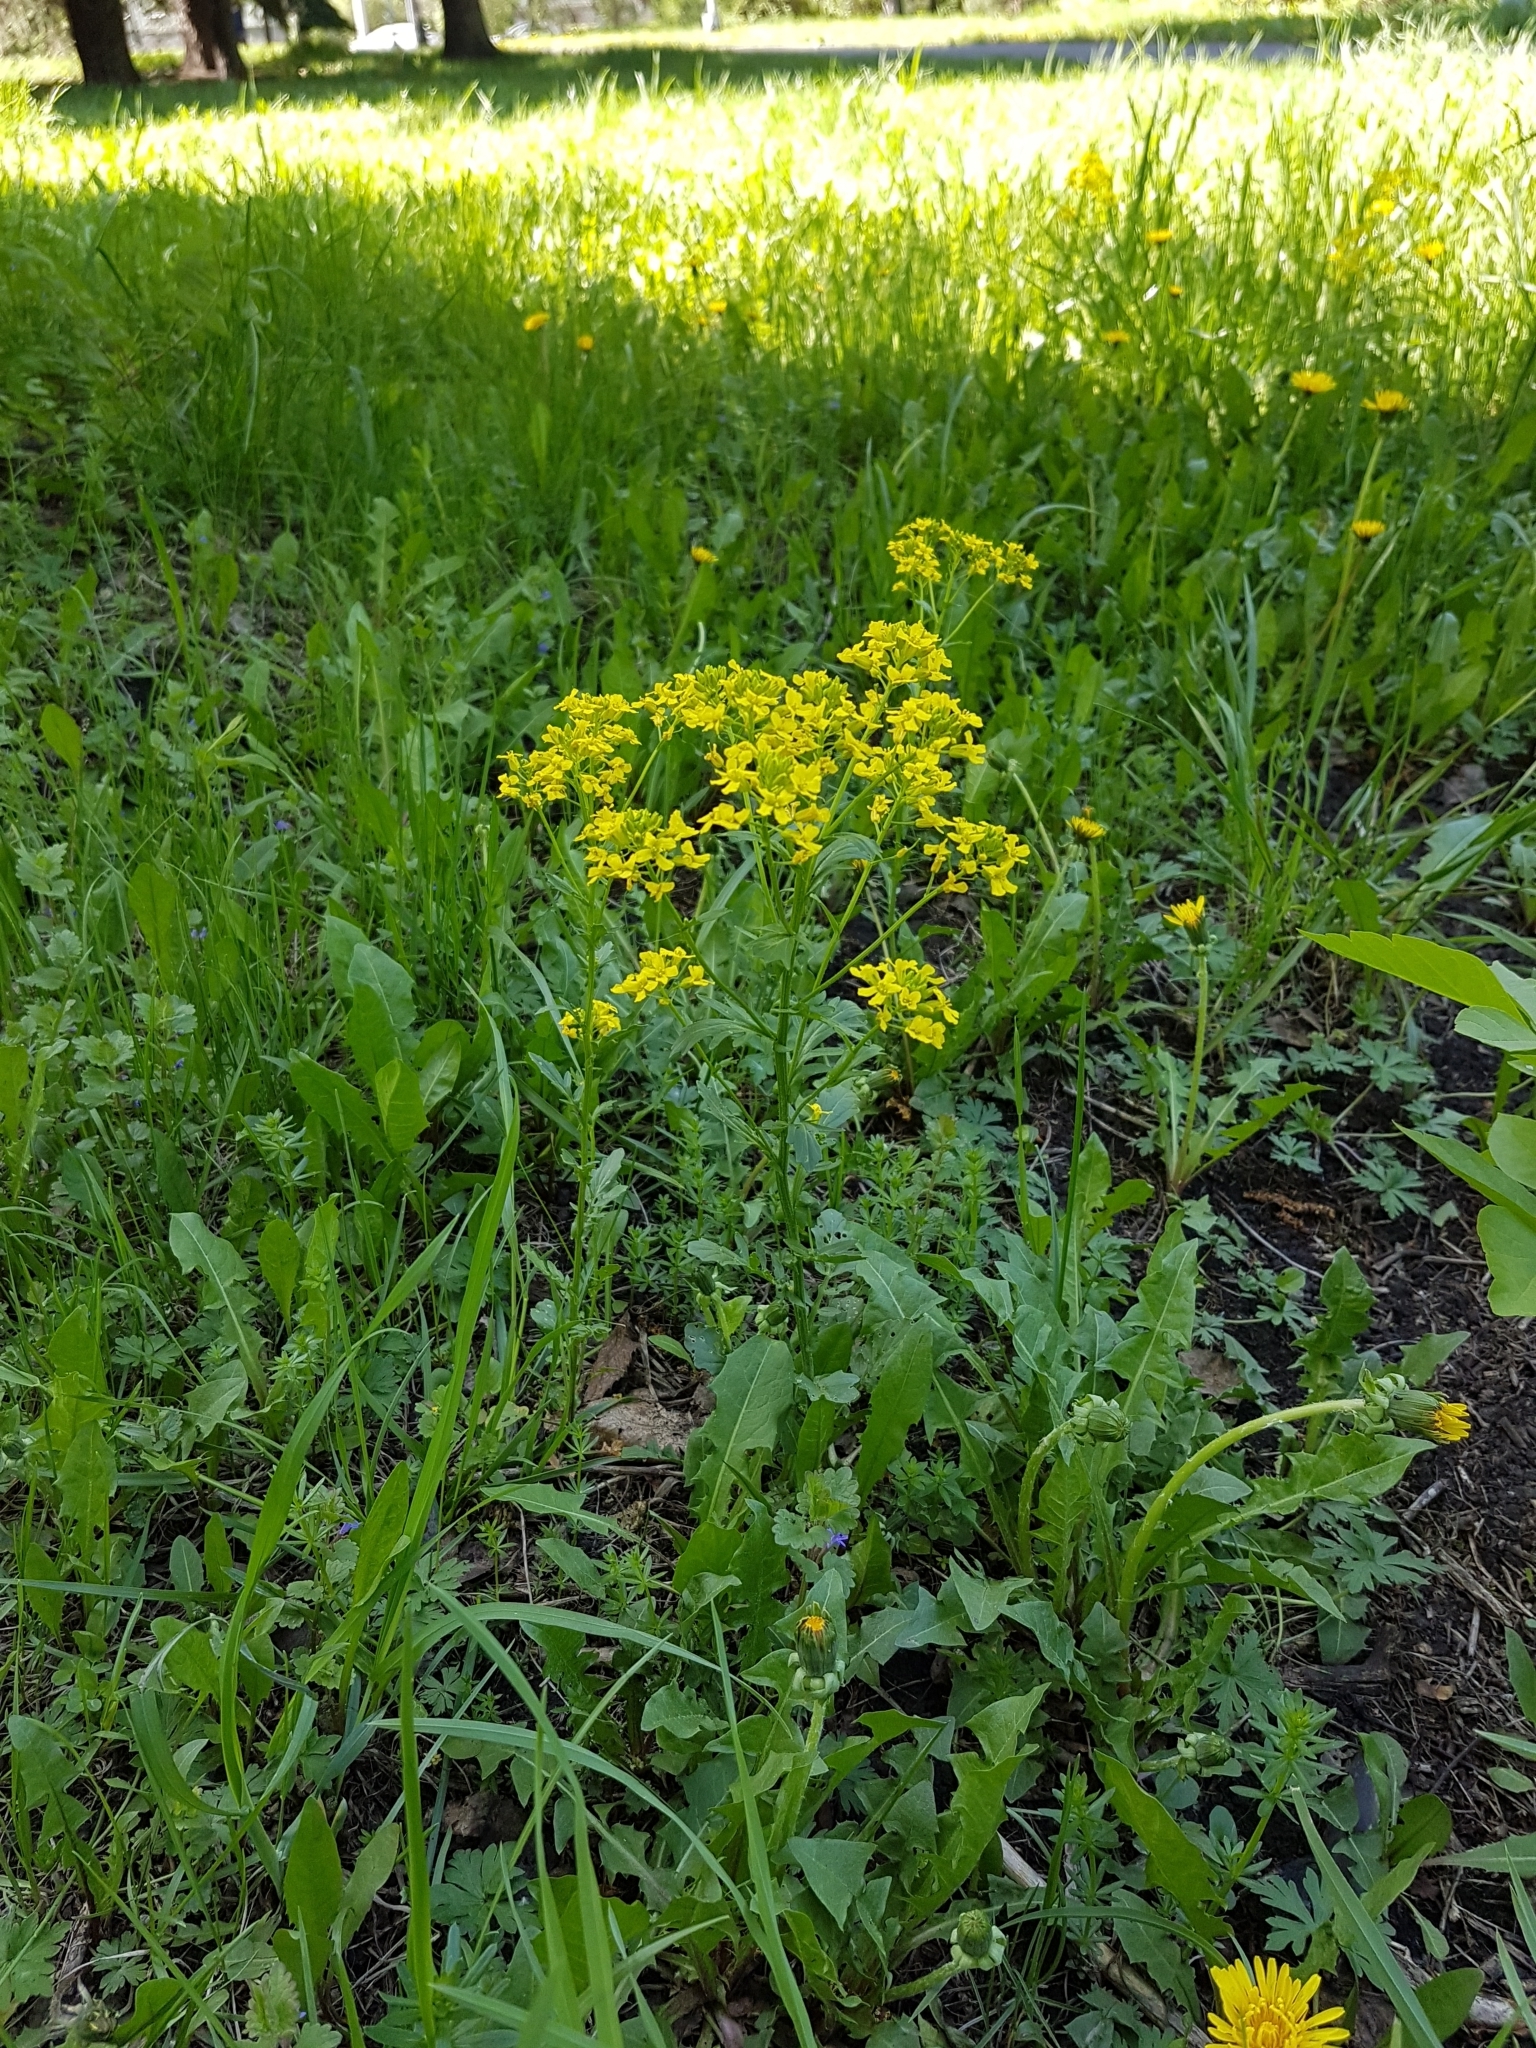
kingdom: Plantae
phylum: Tracheophyta
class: Magnoliopsida
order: Brassicales
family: Brassicaceae
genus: Barbarea
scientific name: Barbarea vulgaris
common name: Cressy-greens
